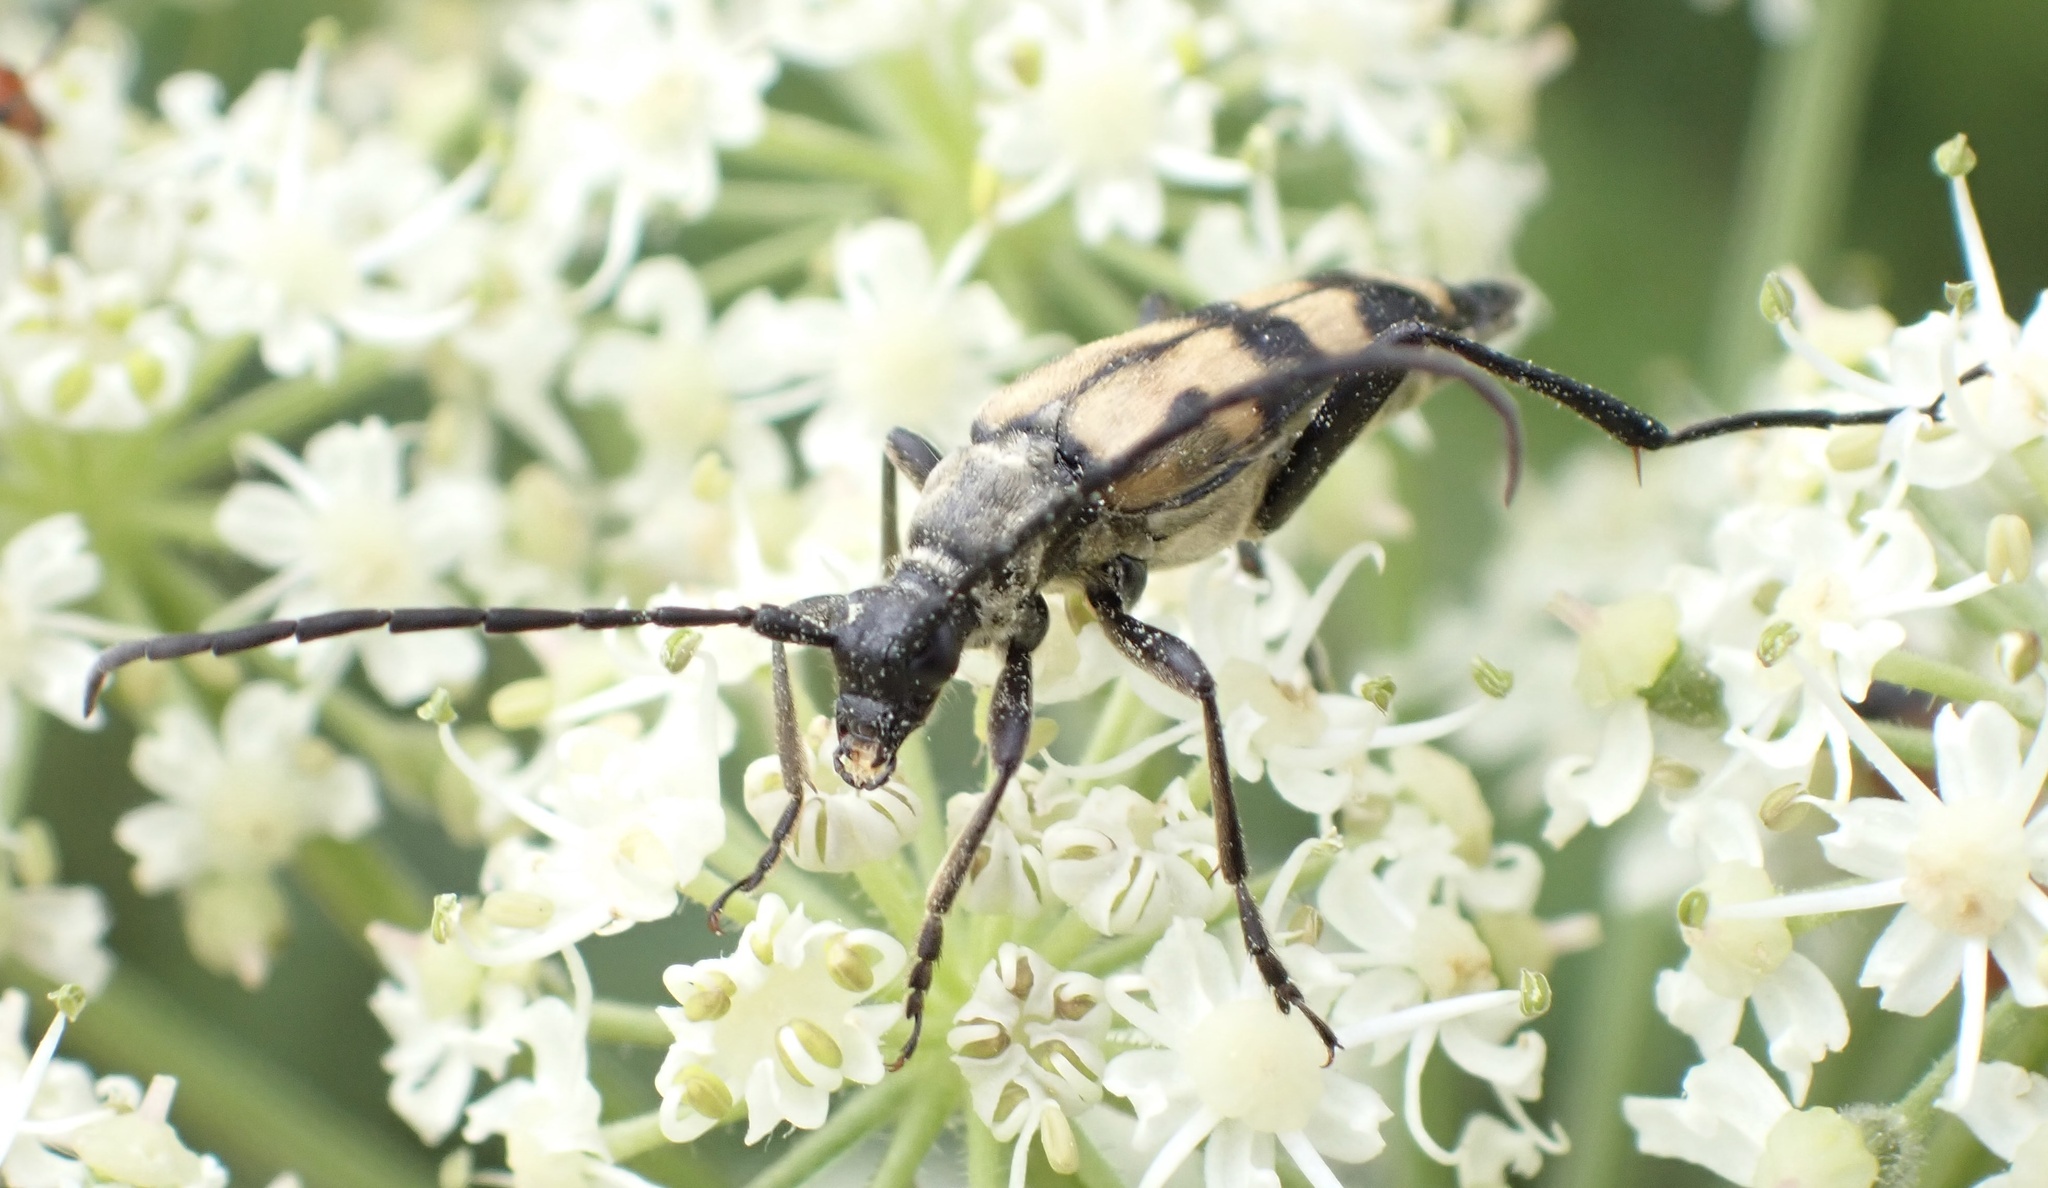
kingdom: Animalia
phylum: Arthropoda
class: Insecta
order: Coleoptera
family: Cerambycidae
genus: Leptura
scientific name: Leptura quadrifasciata
